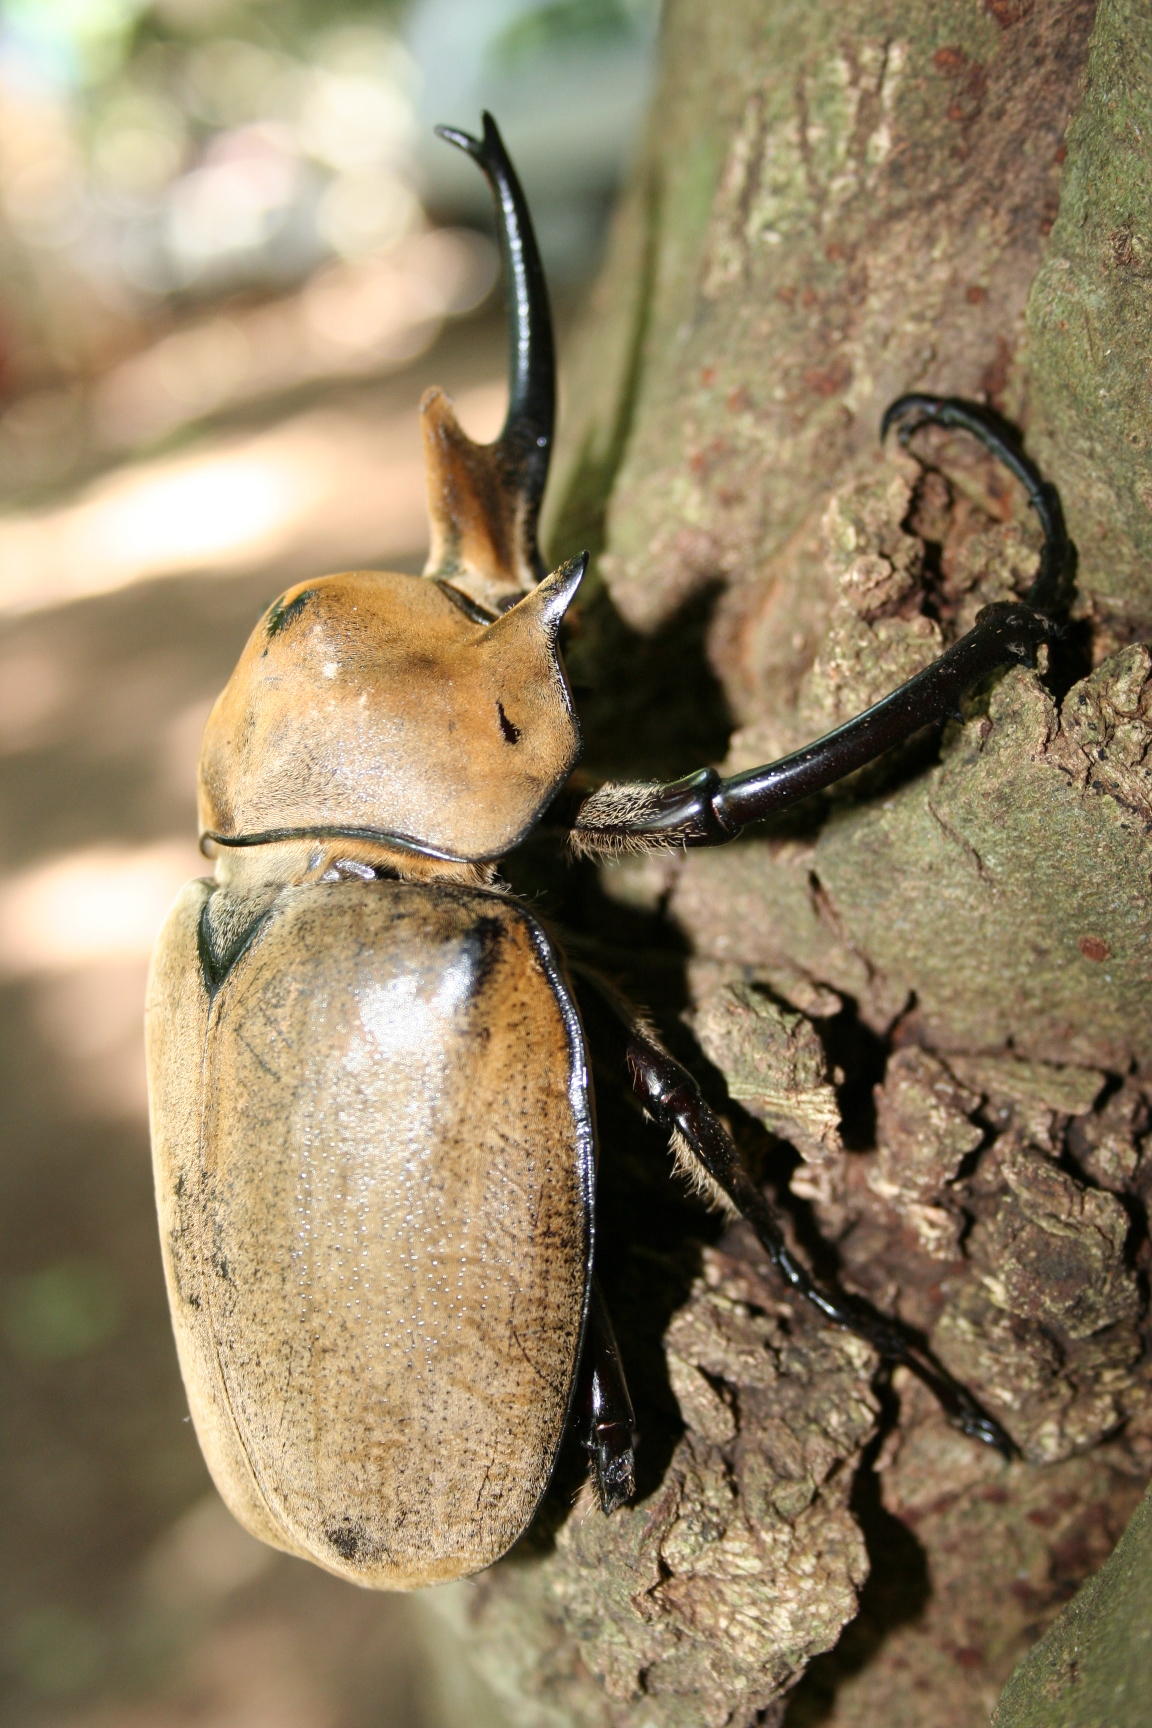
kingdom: Animalia
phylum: Arthropoda
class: Insecta
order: Coleoptera
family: Scarabaeidae
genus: Megasoma
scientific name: Megasoma elephas
